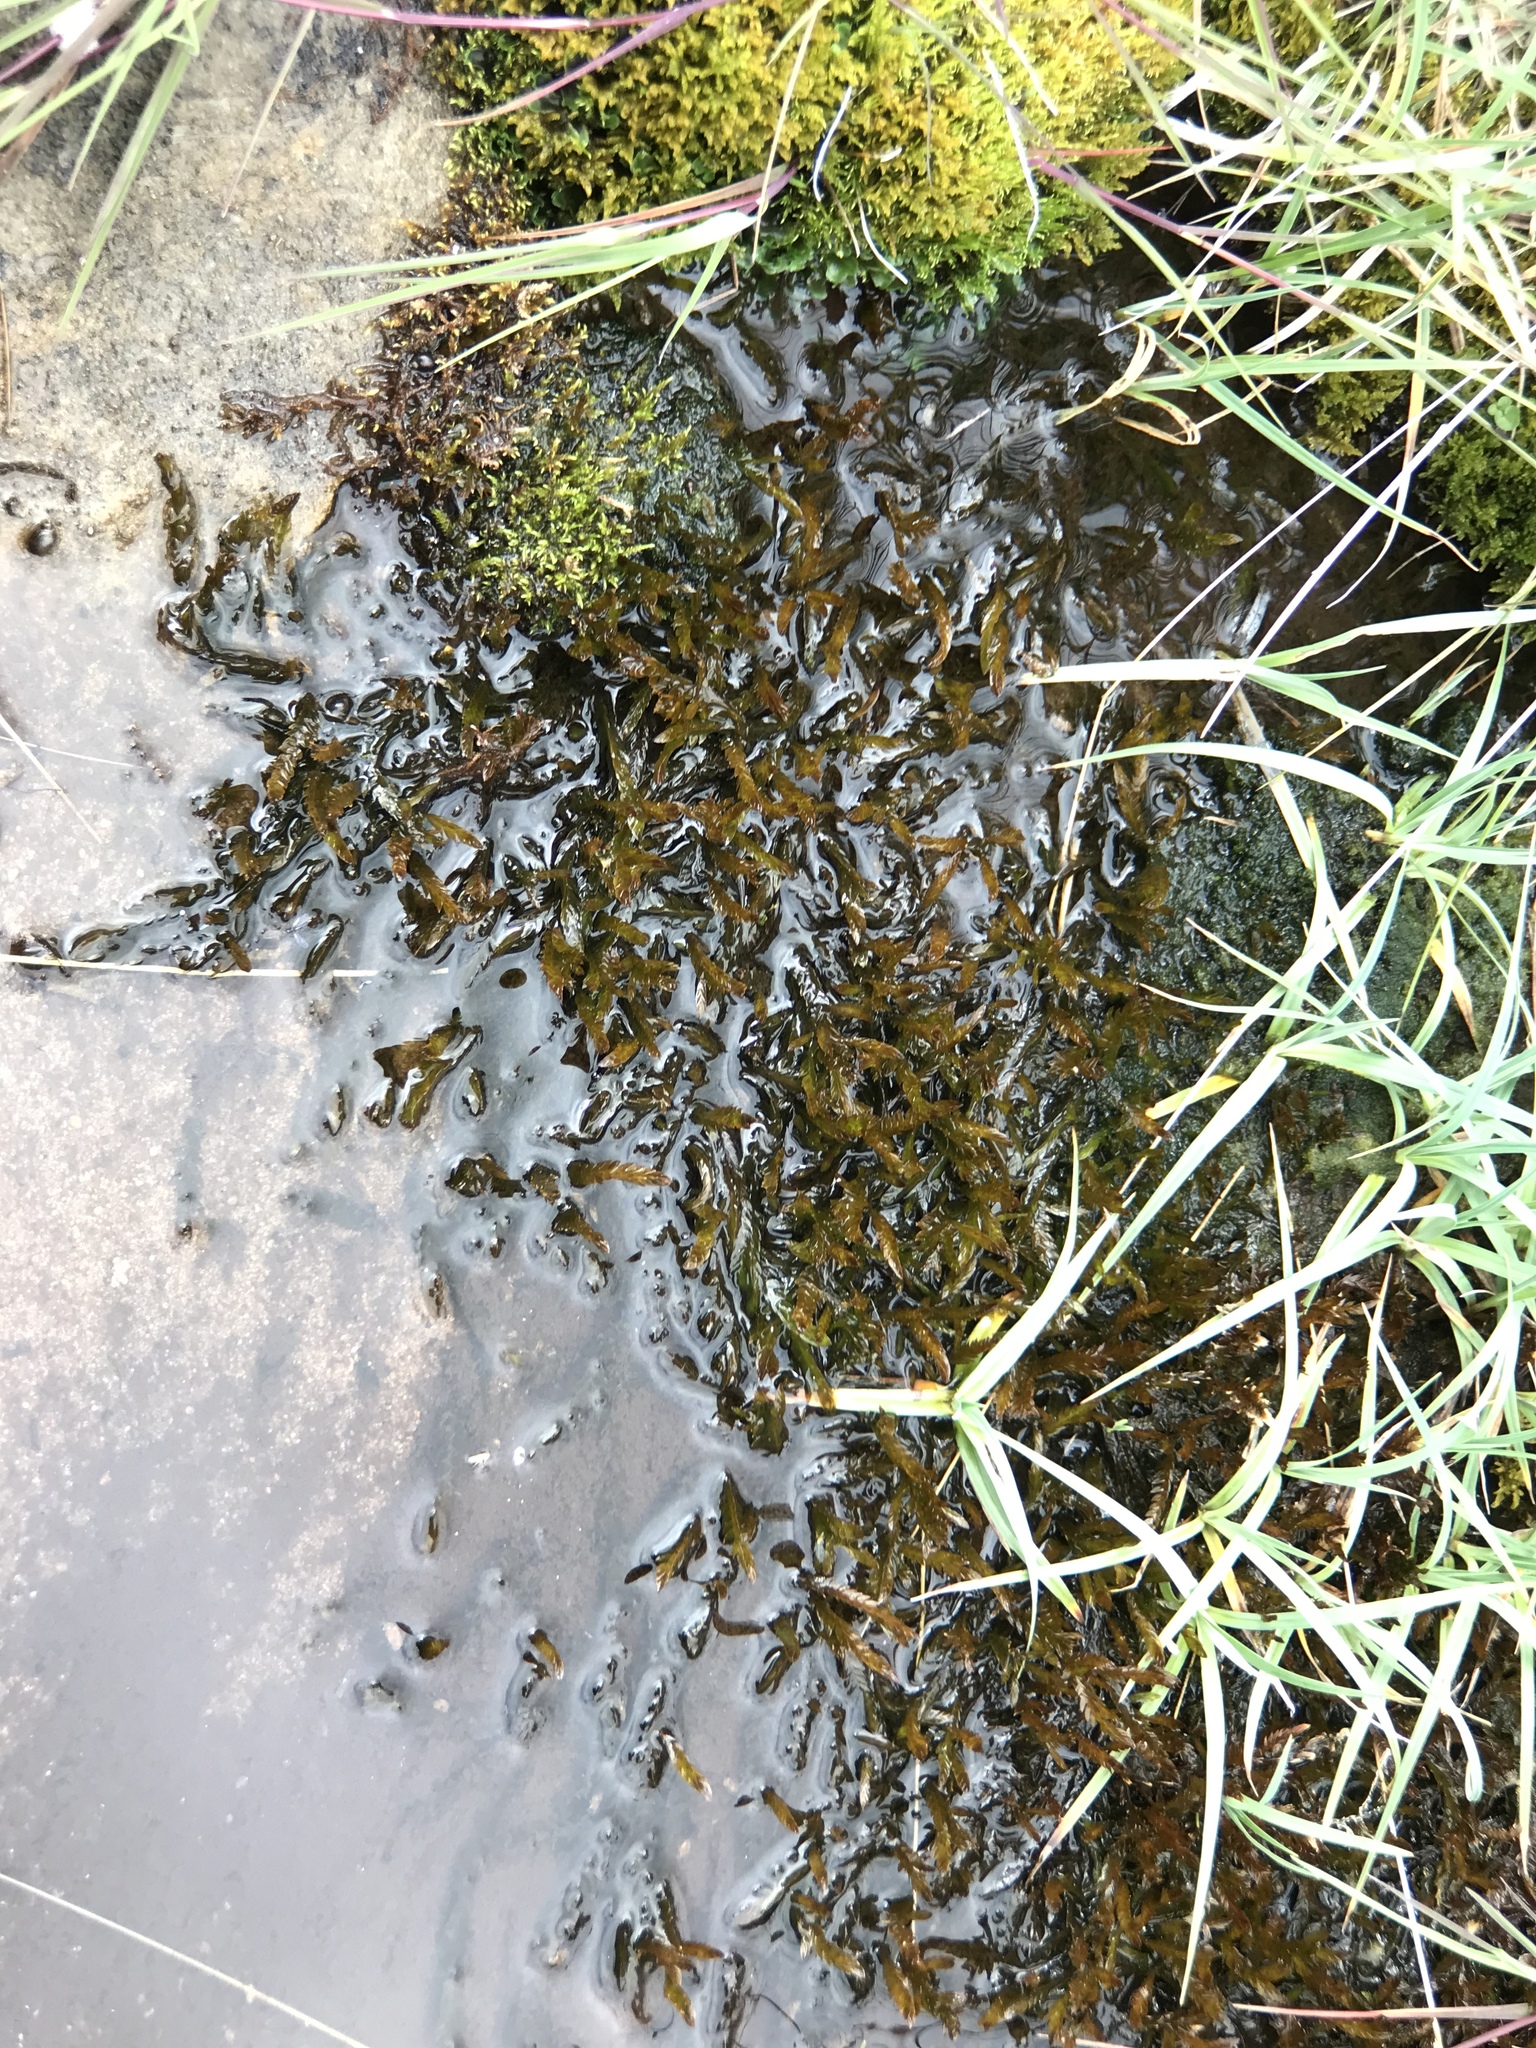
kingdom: Plantae
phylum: Bryophyta
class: Bryopsida
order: Hypnales
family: Fontinalaceae
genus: Fontinalis
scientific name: Fontinalis antipyretica
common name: Greater water-moss
